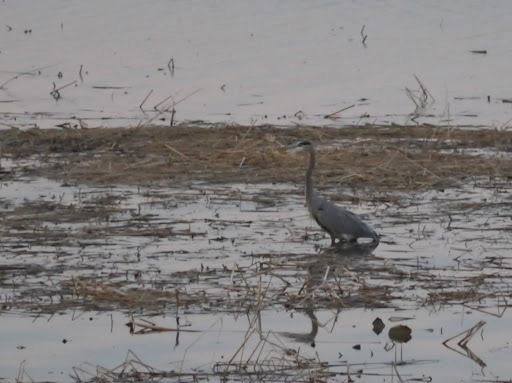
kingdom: Animalia
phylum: Chordata
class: Aves
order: Pelecaniformes
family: Ardeidae
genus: Ardea
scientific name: Ardea herodias
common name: Great blue heron
